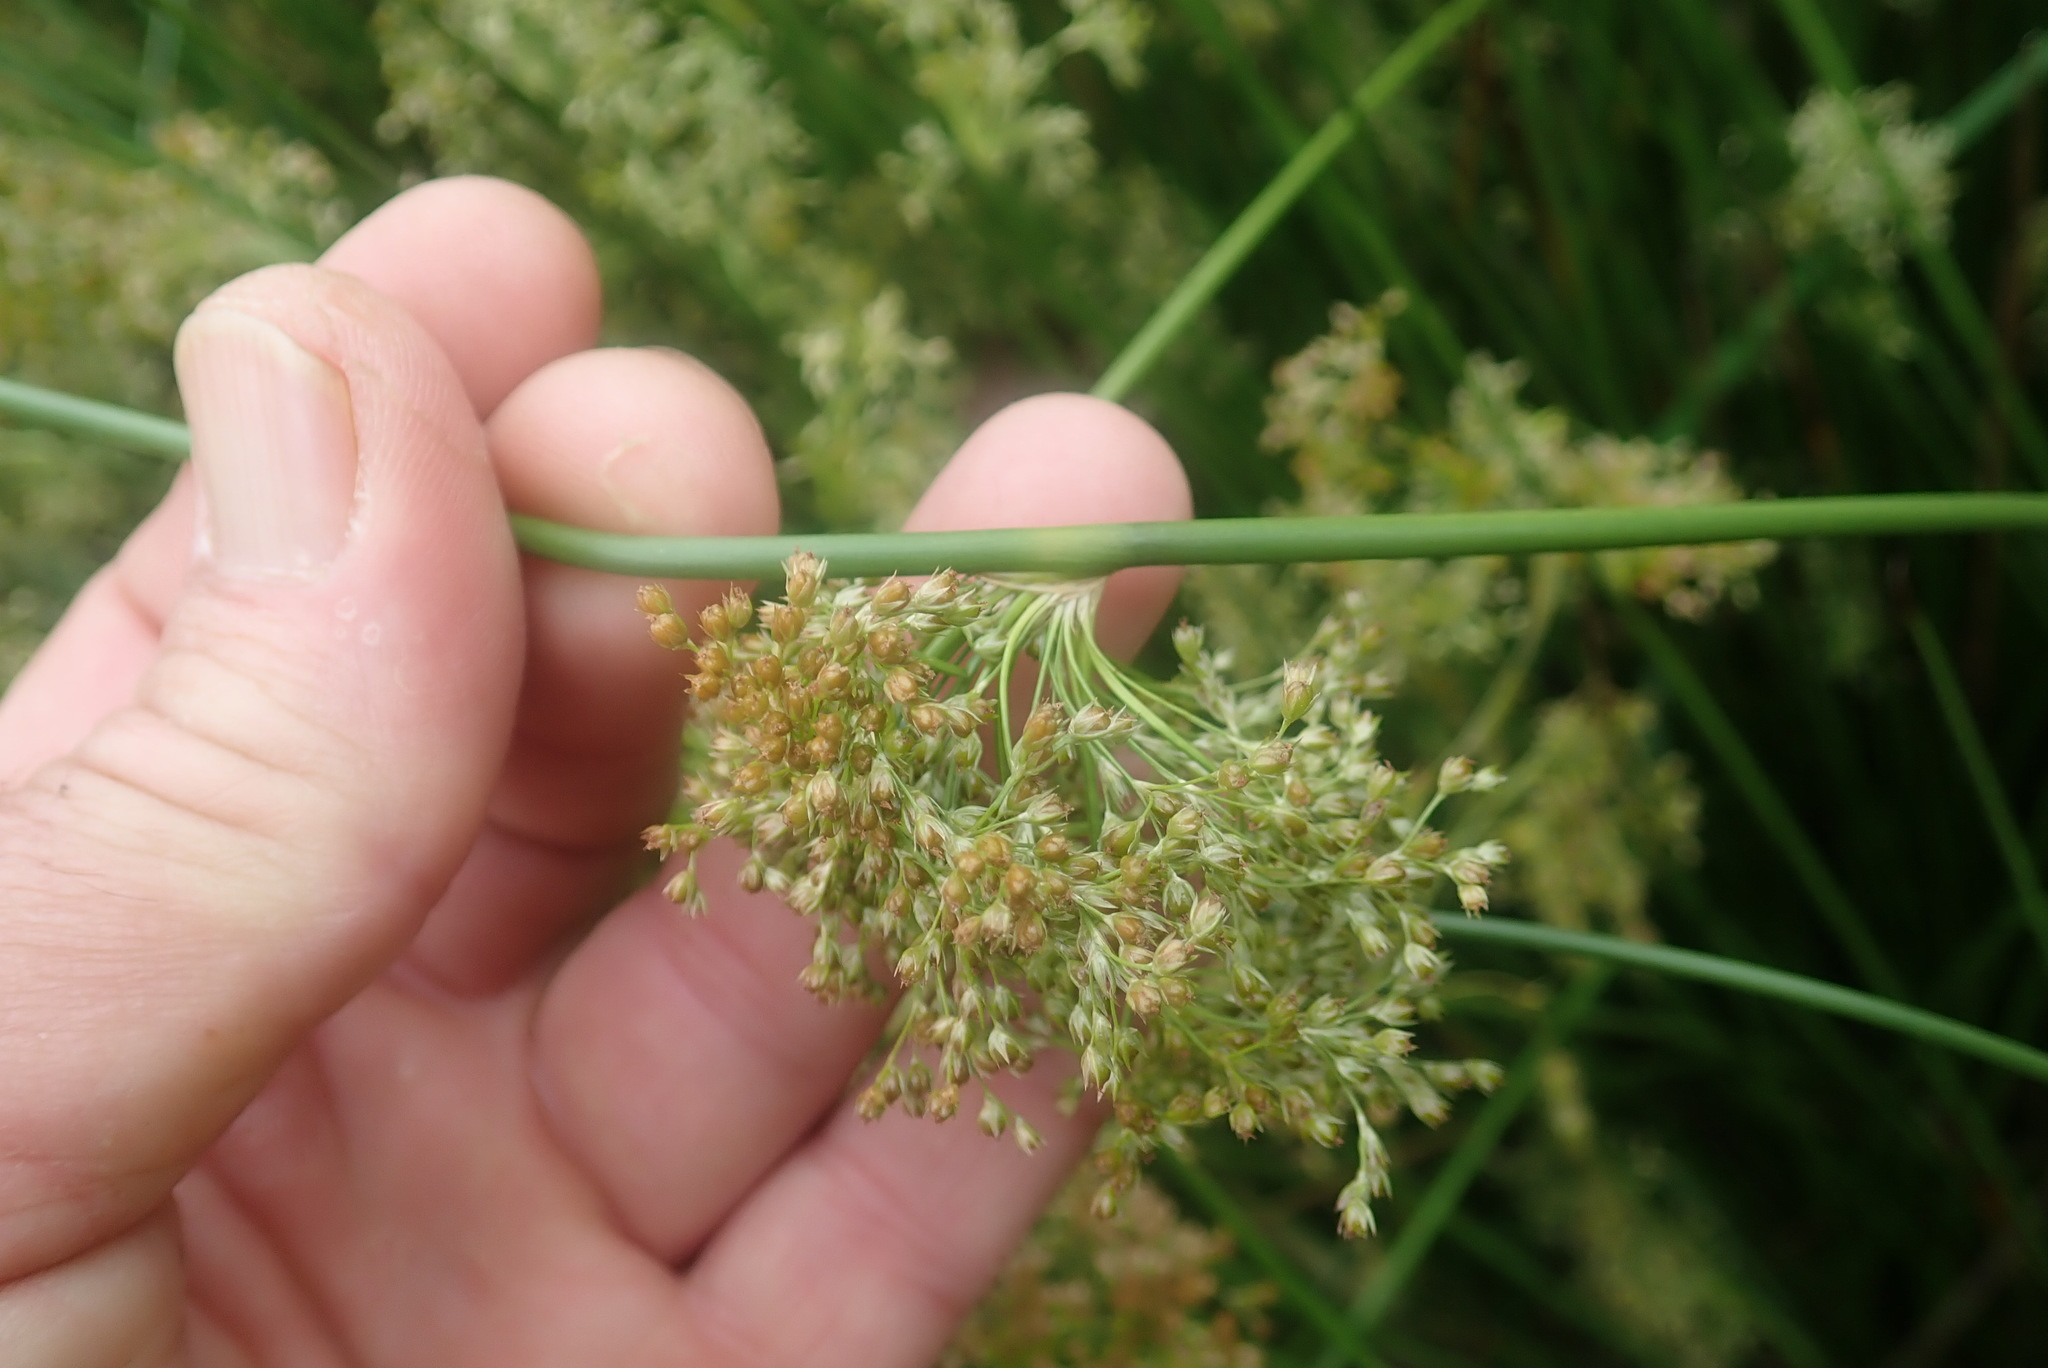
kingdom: Plantae
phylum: Tracheophyta
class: Liliopsida
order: Poales
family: Juncaceae
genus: Juncus
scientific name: Juncus effusus
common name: Soft rush
